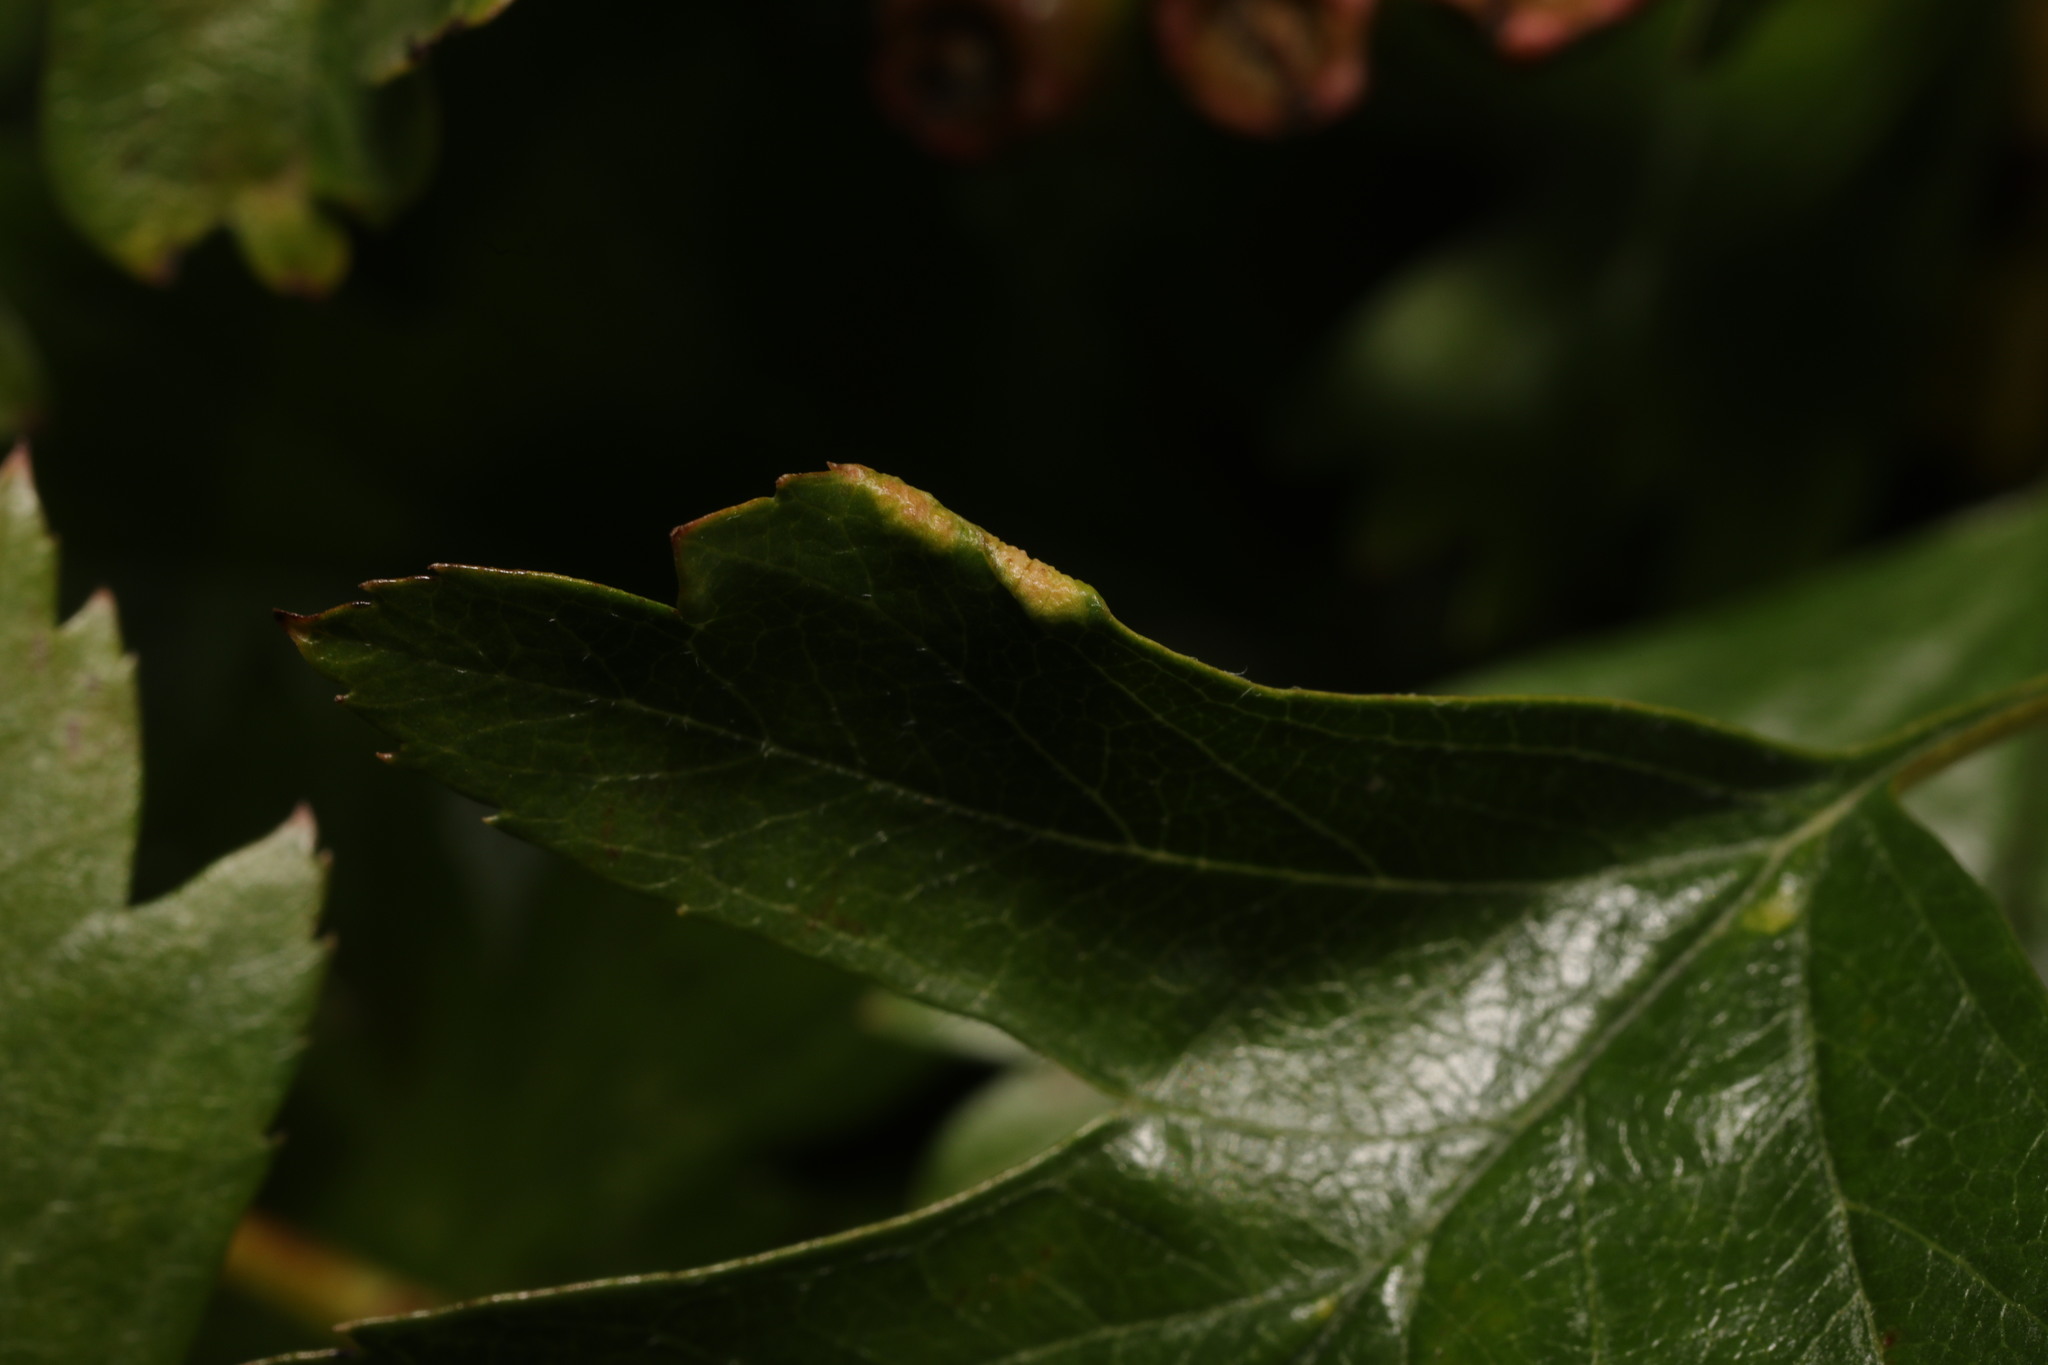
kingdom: Animalia
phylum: Arthropoda
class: Arachnida
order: Trombidiformes
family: Eriophyidae
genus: Phyllocoptes
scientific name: Phyllocoptes goniothorax
